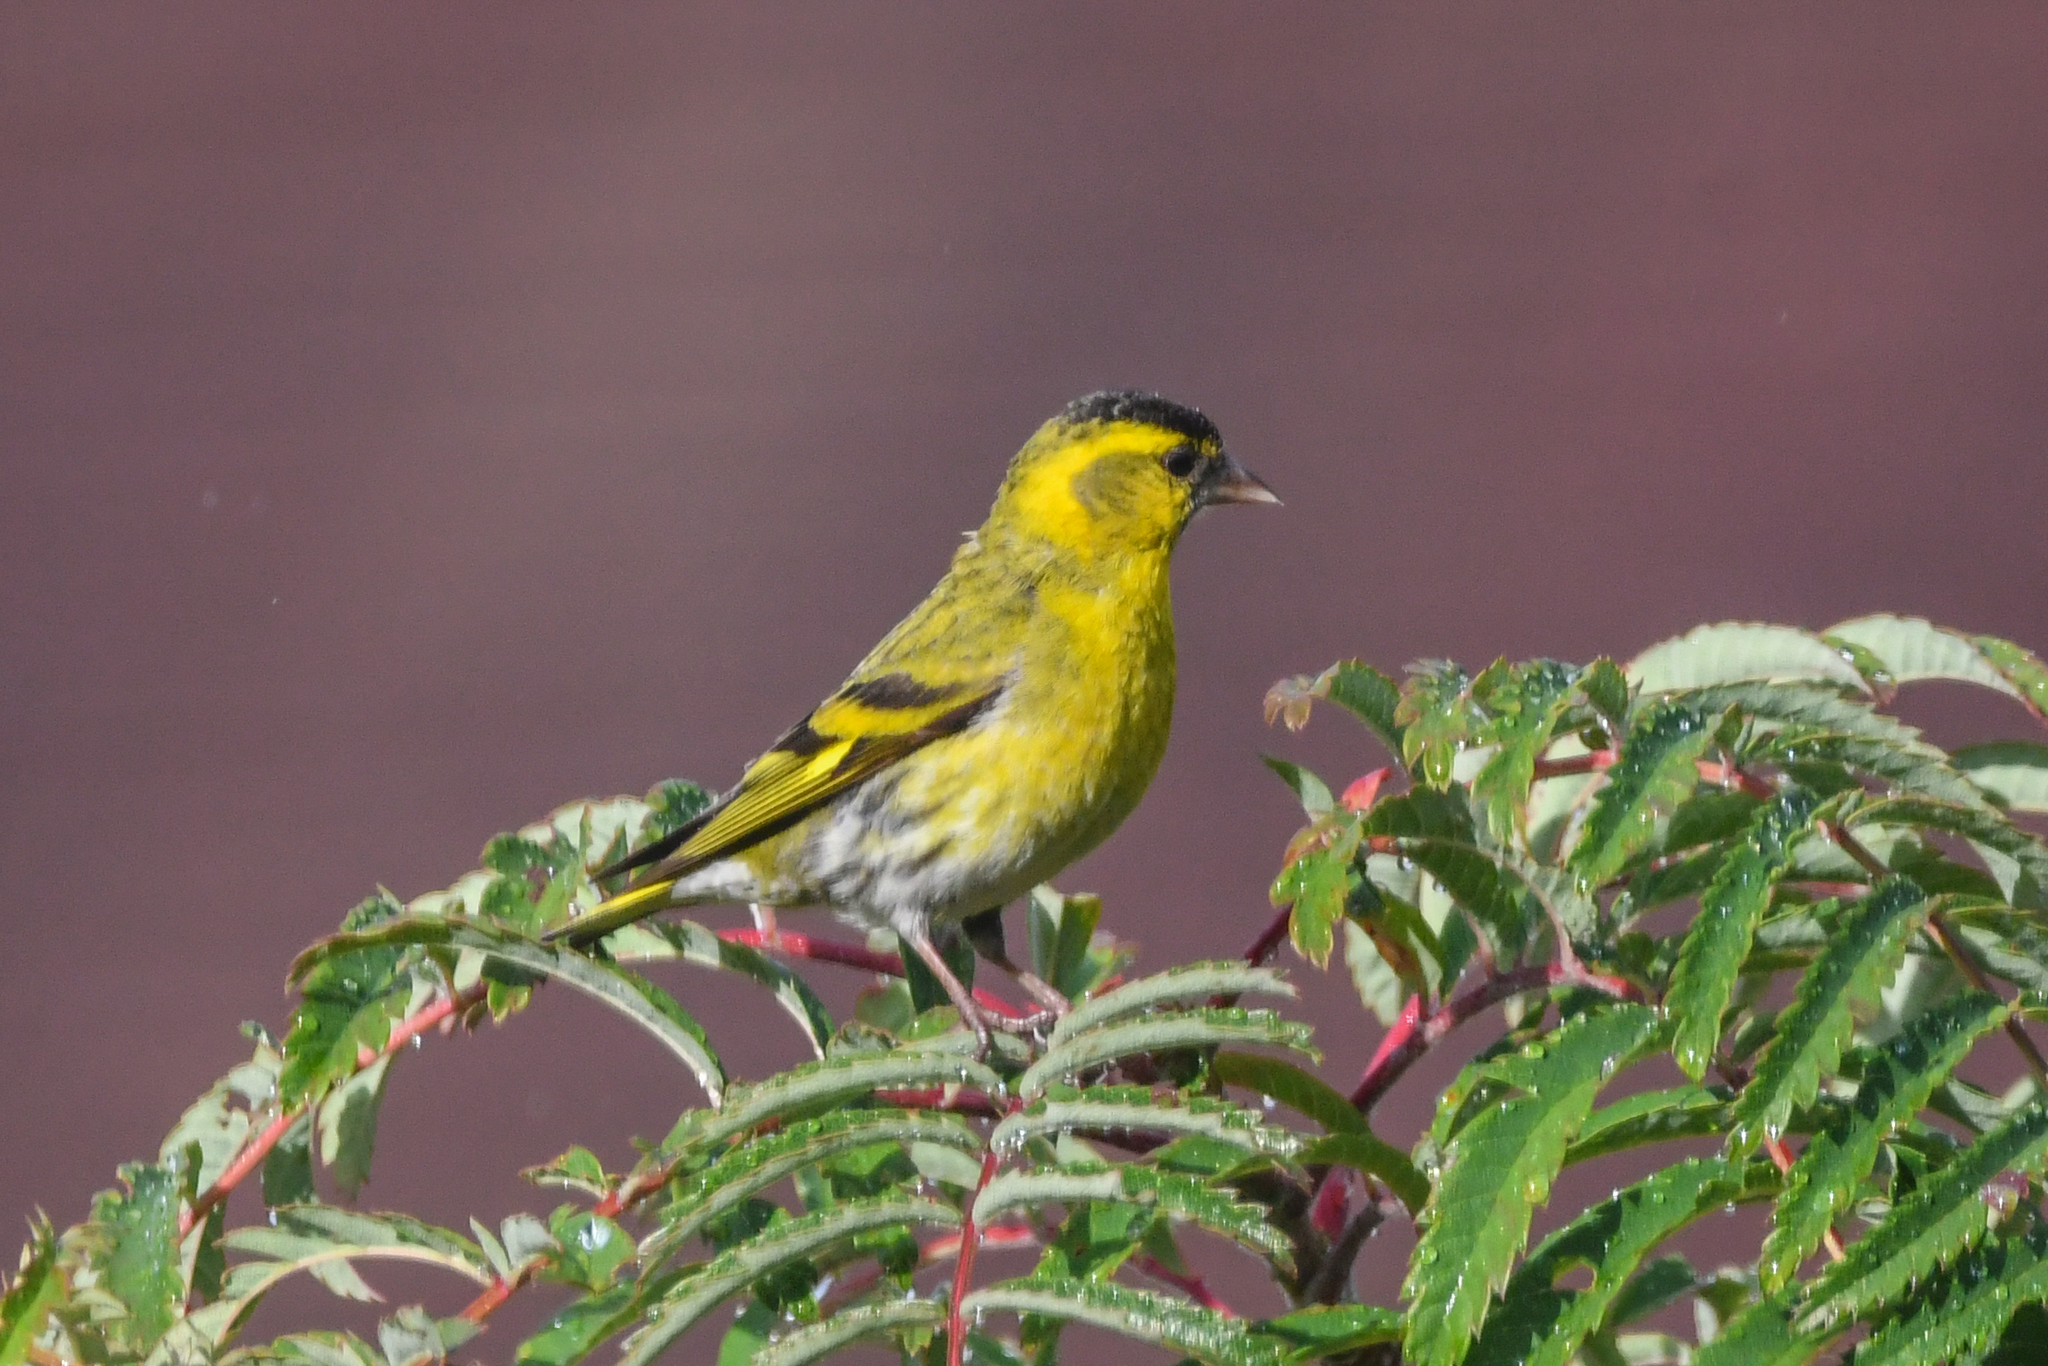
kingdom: Animalia
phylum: Chordata
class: Aves
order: Passeriformes
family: Fringillidae
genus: Spinus
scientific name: Spinus spinus
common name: Eurasian siskin
